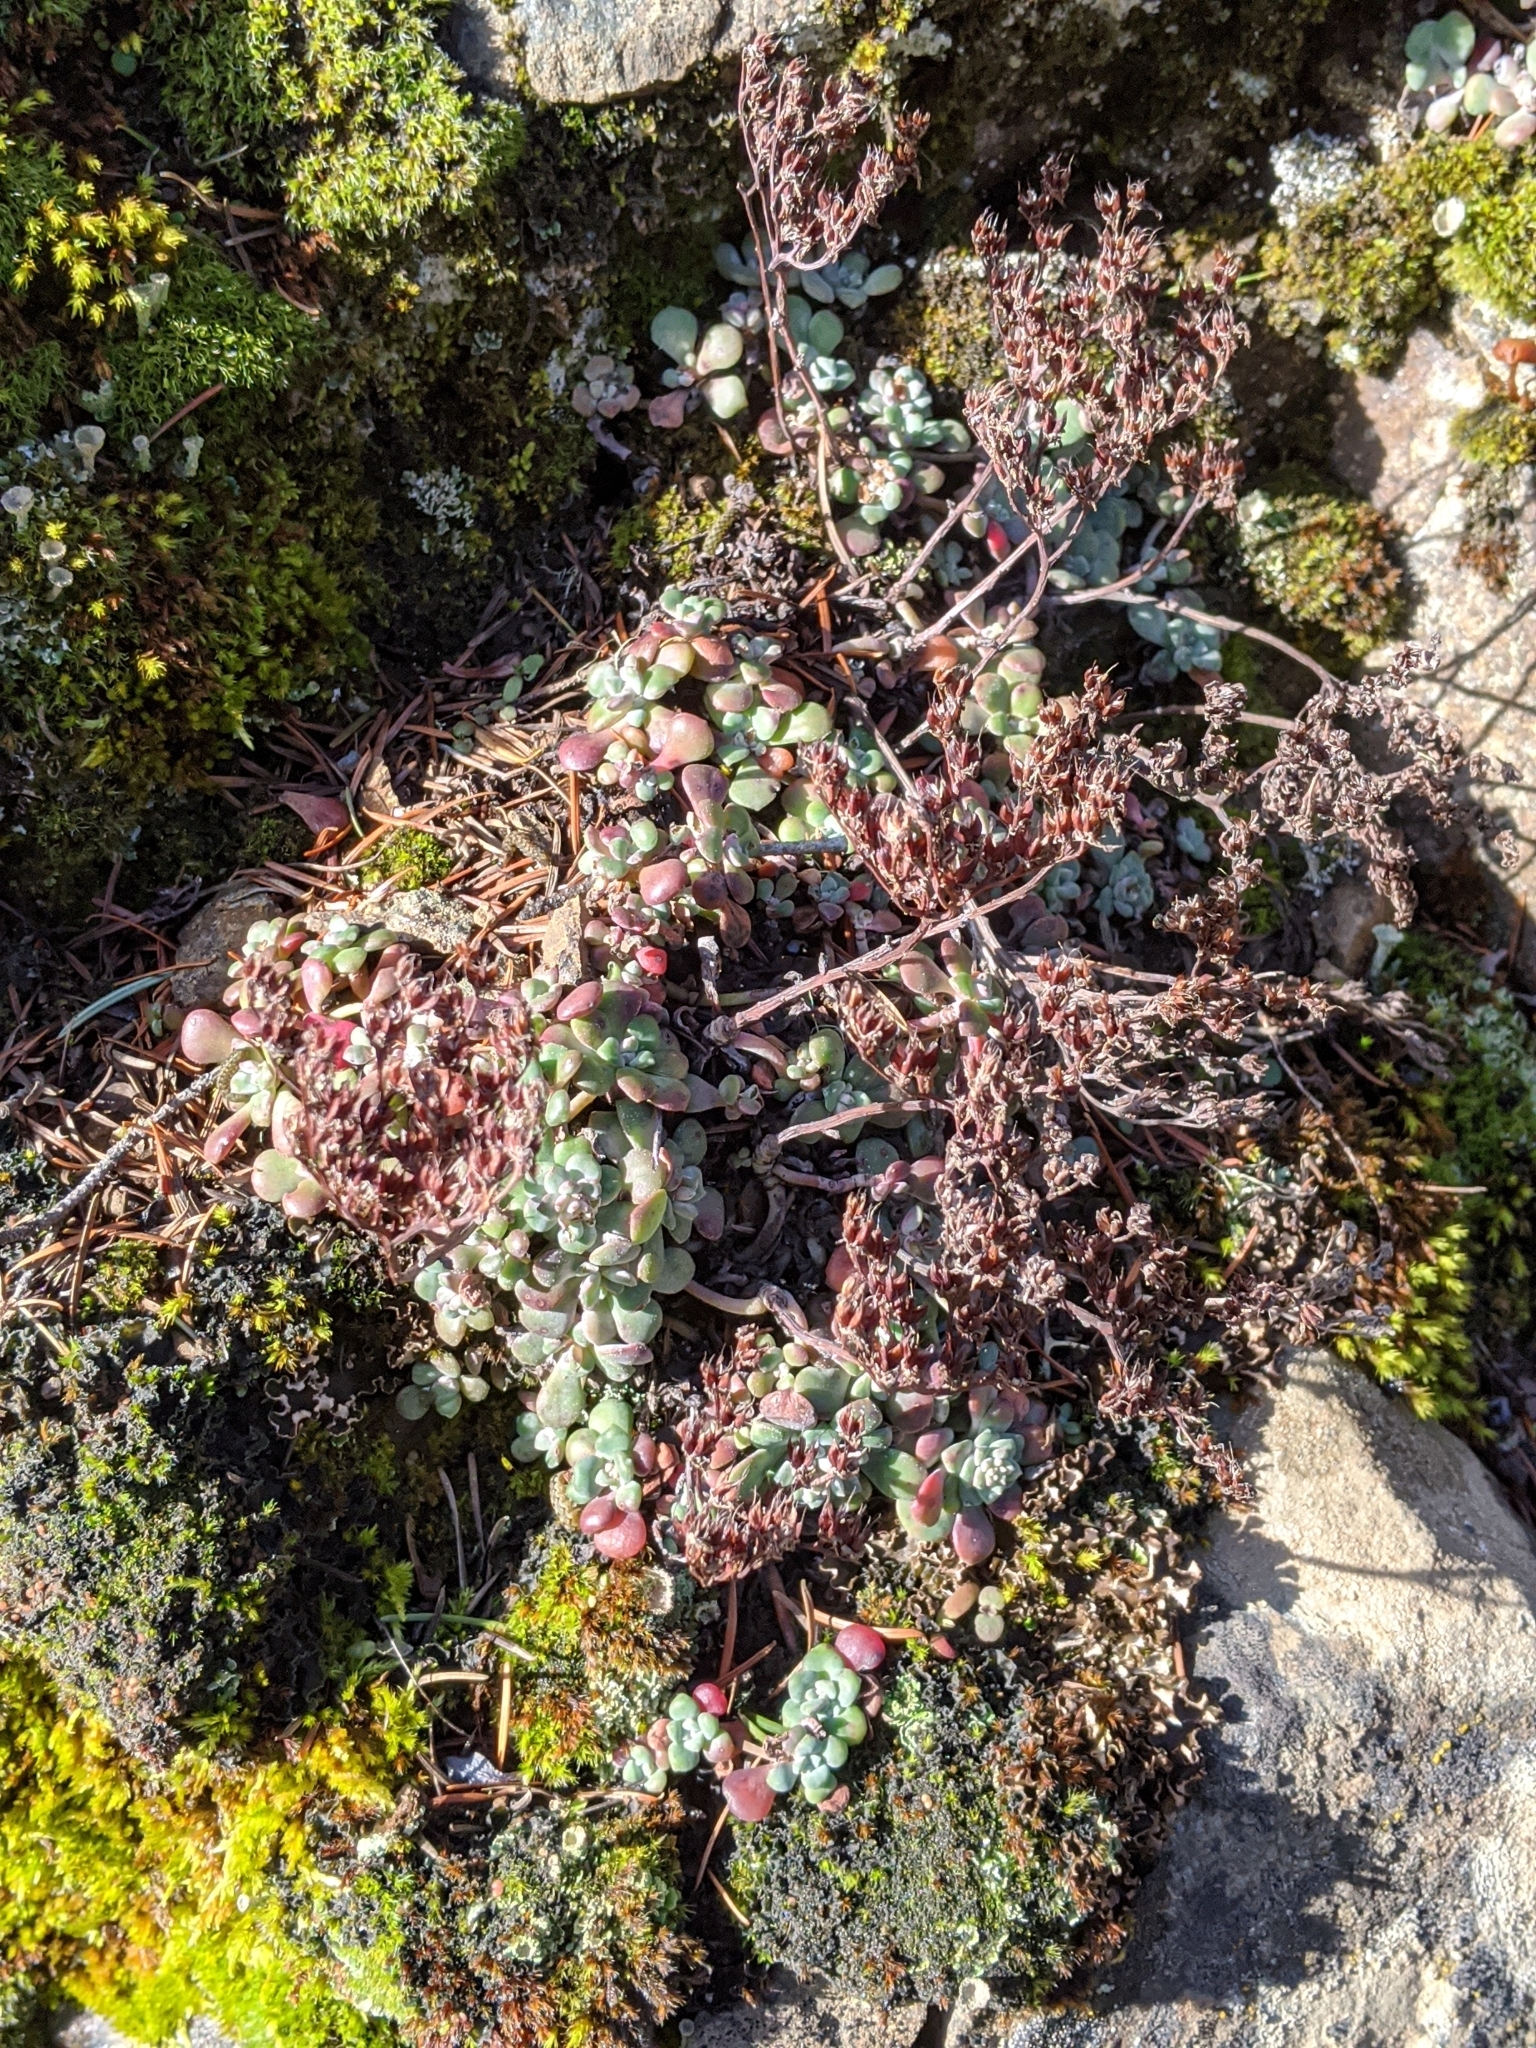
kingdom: Plantae
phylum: Tracheophyta
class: Magnoliopsida
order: Saxifragales
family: Crassulaceae
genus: Sedum
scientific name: Sedum spathulifolium
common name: Colorado stonecrop
